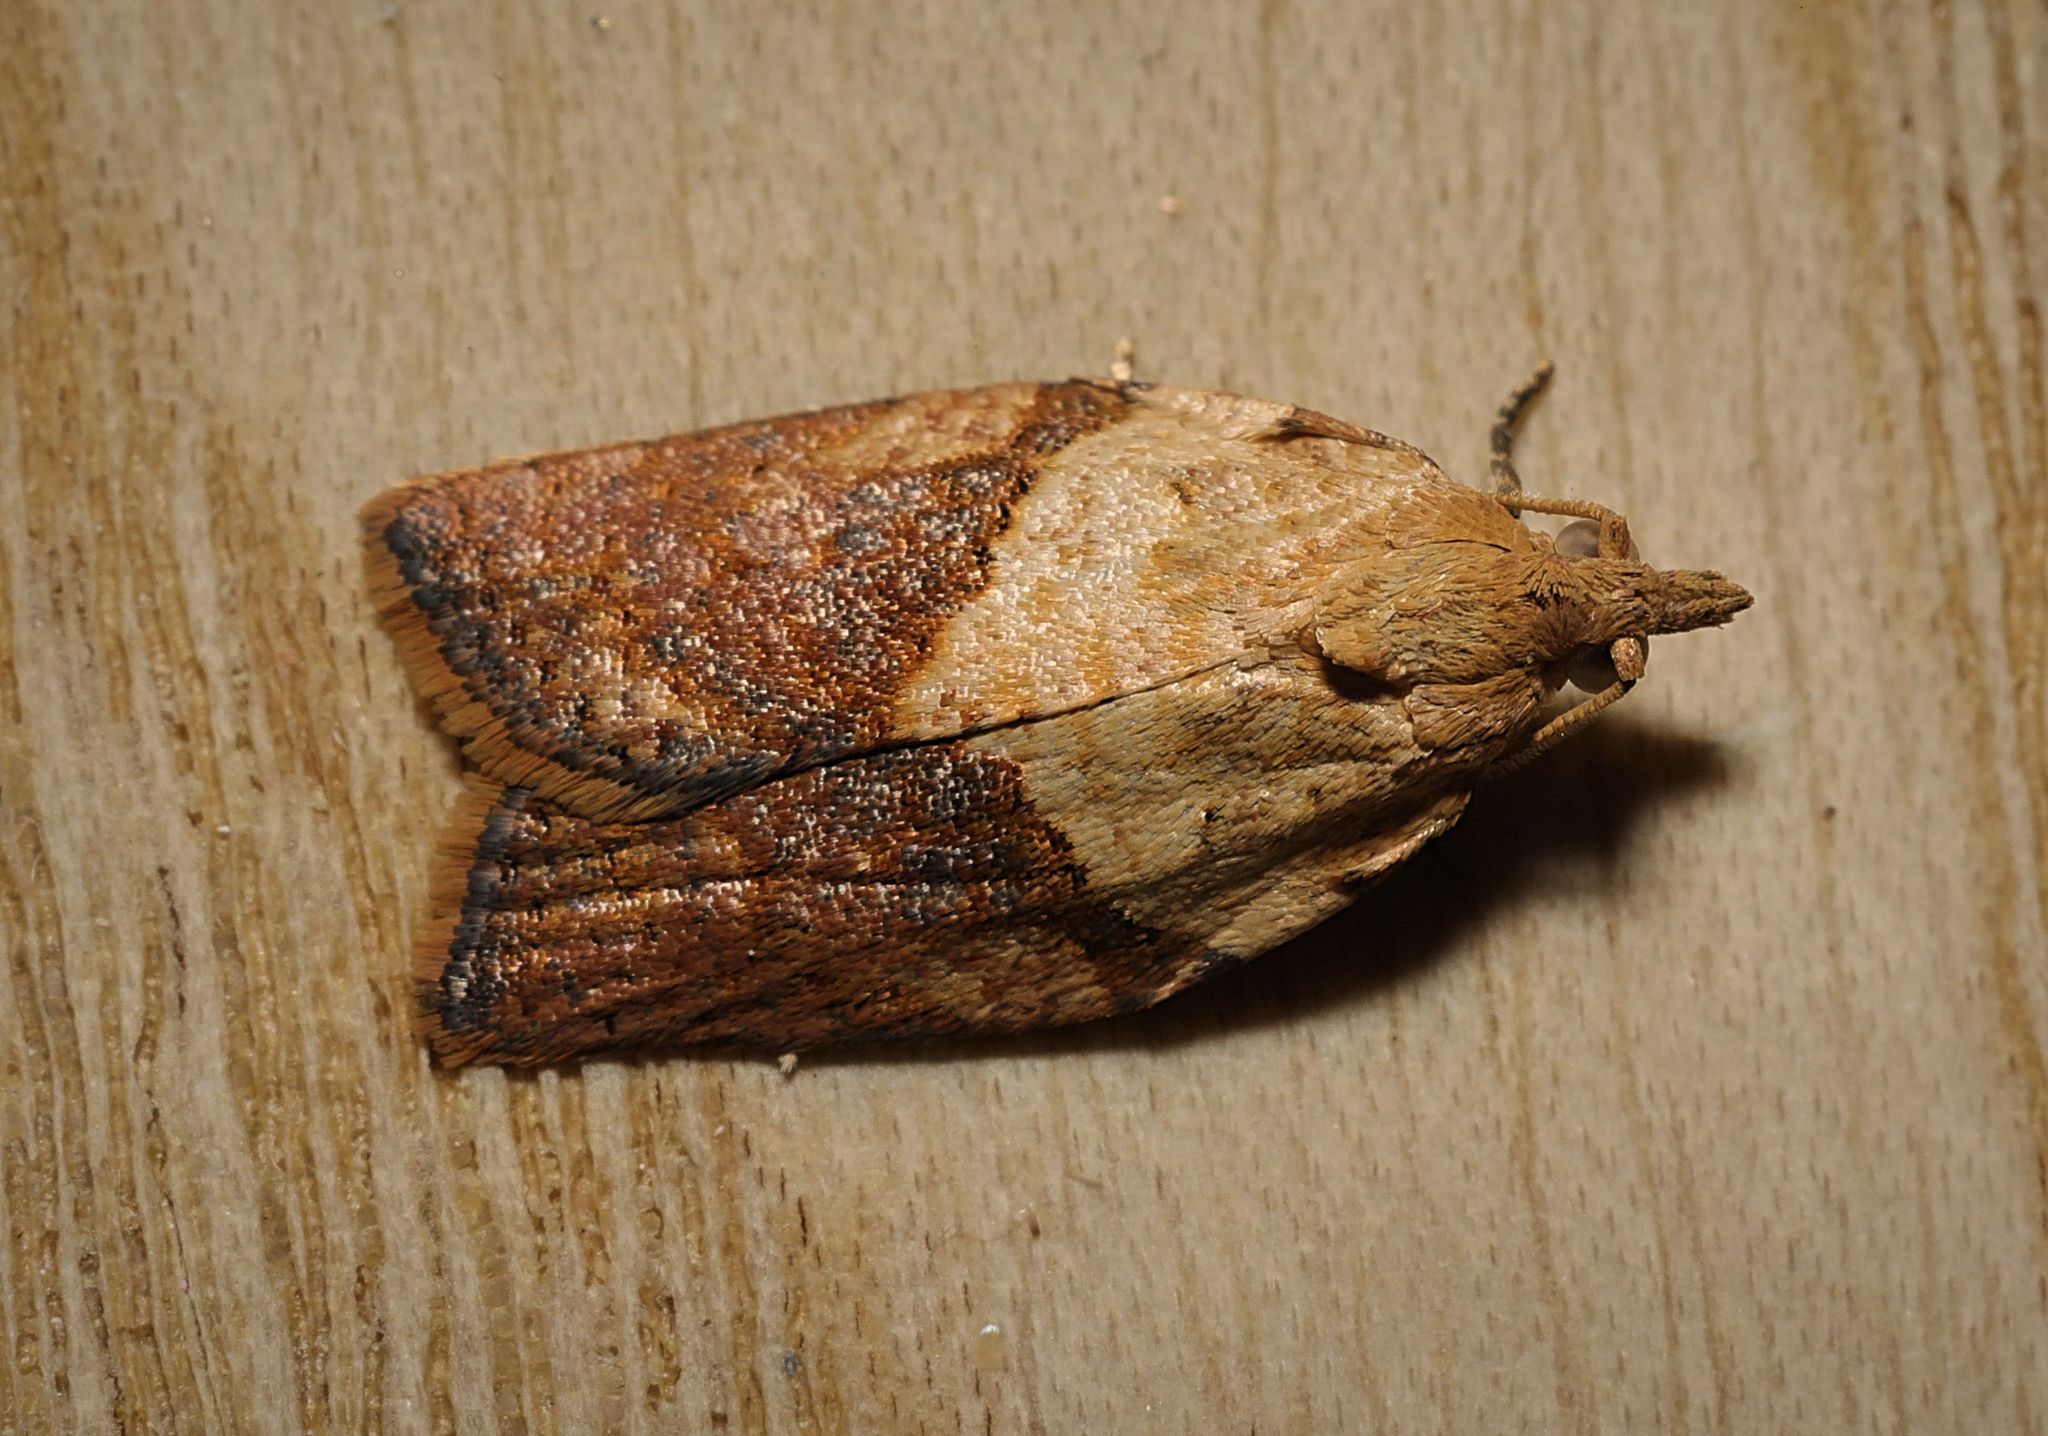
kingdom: Animalia
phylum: Arthropoda
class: Insecta
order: Lepidoptera
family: Tortricidae
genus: Epiphyas
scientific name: Epiphyas postvittana
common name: Light brown apple moth
